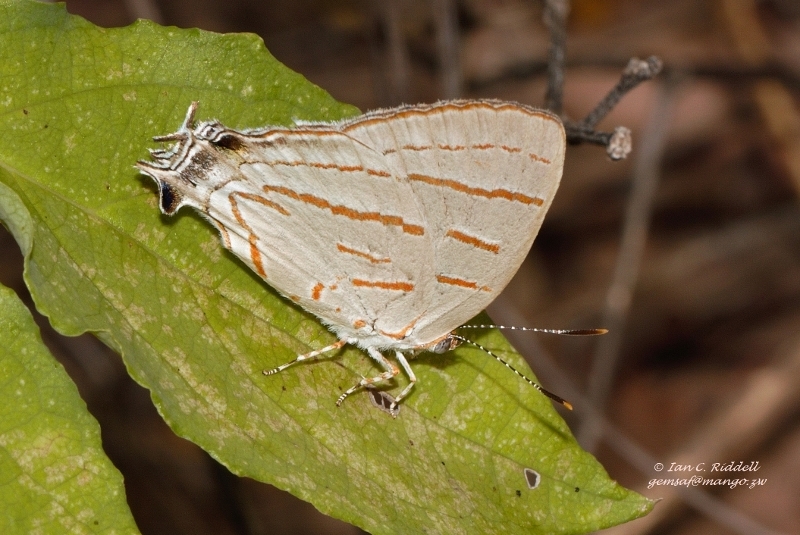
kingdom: Animalia
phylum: Arthropoda
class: Insecta
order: Lepidoptera
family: Lycaenidae
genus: Hemiolaus
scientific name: Hemiolaus caeculus
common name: Azure hairstreak
